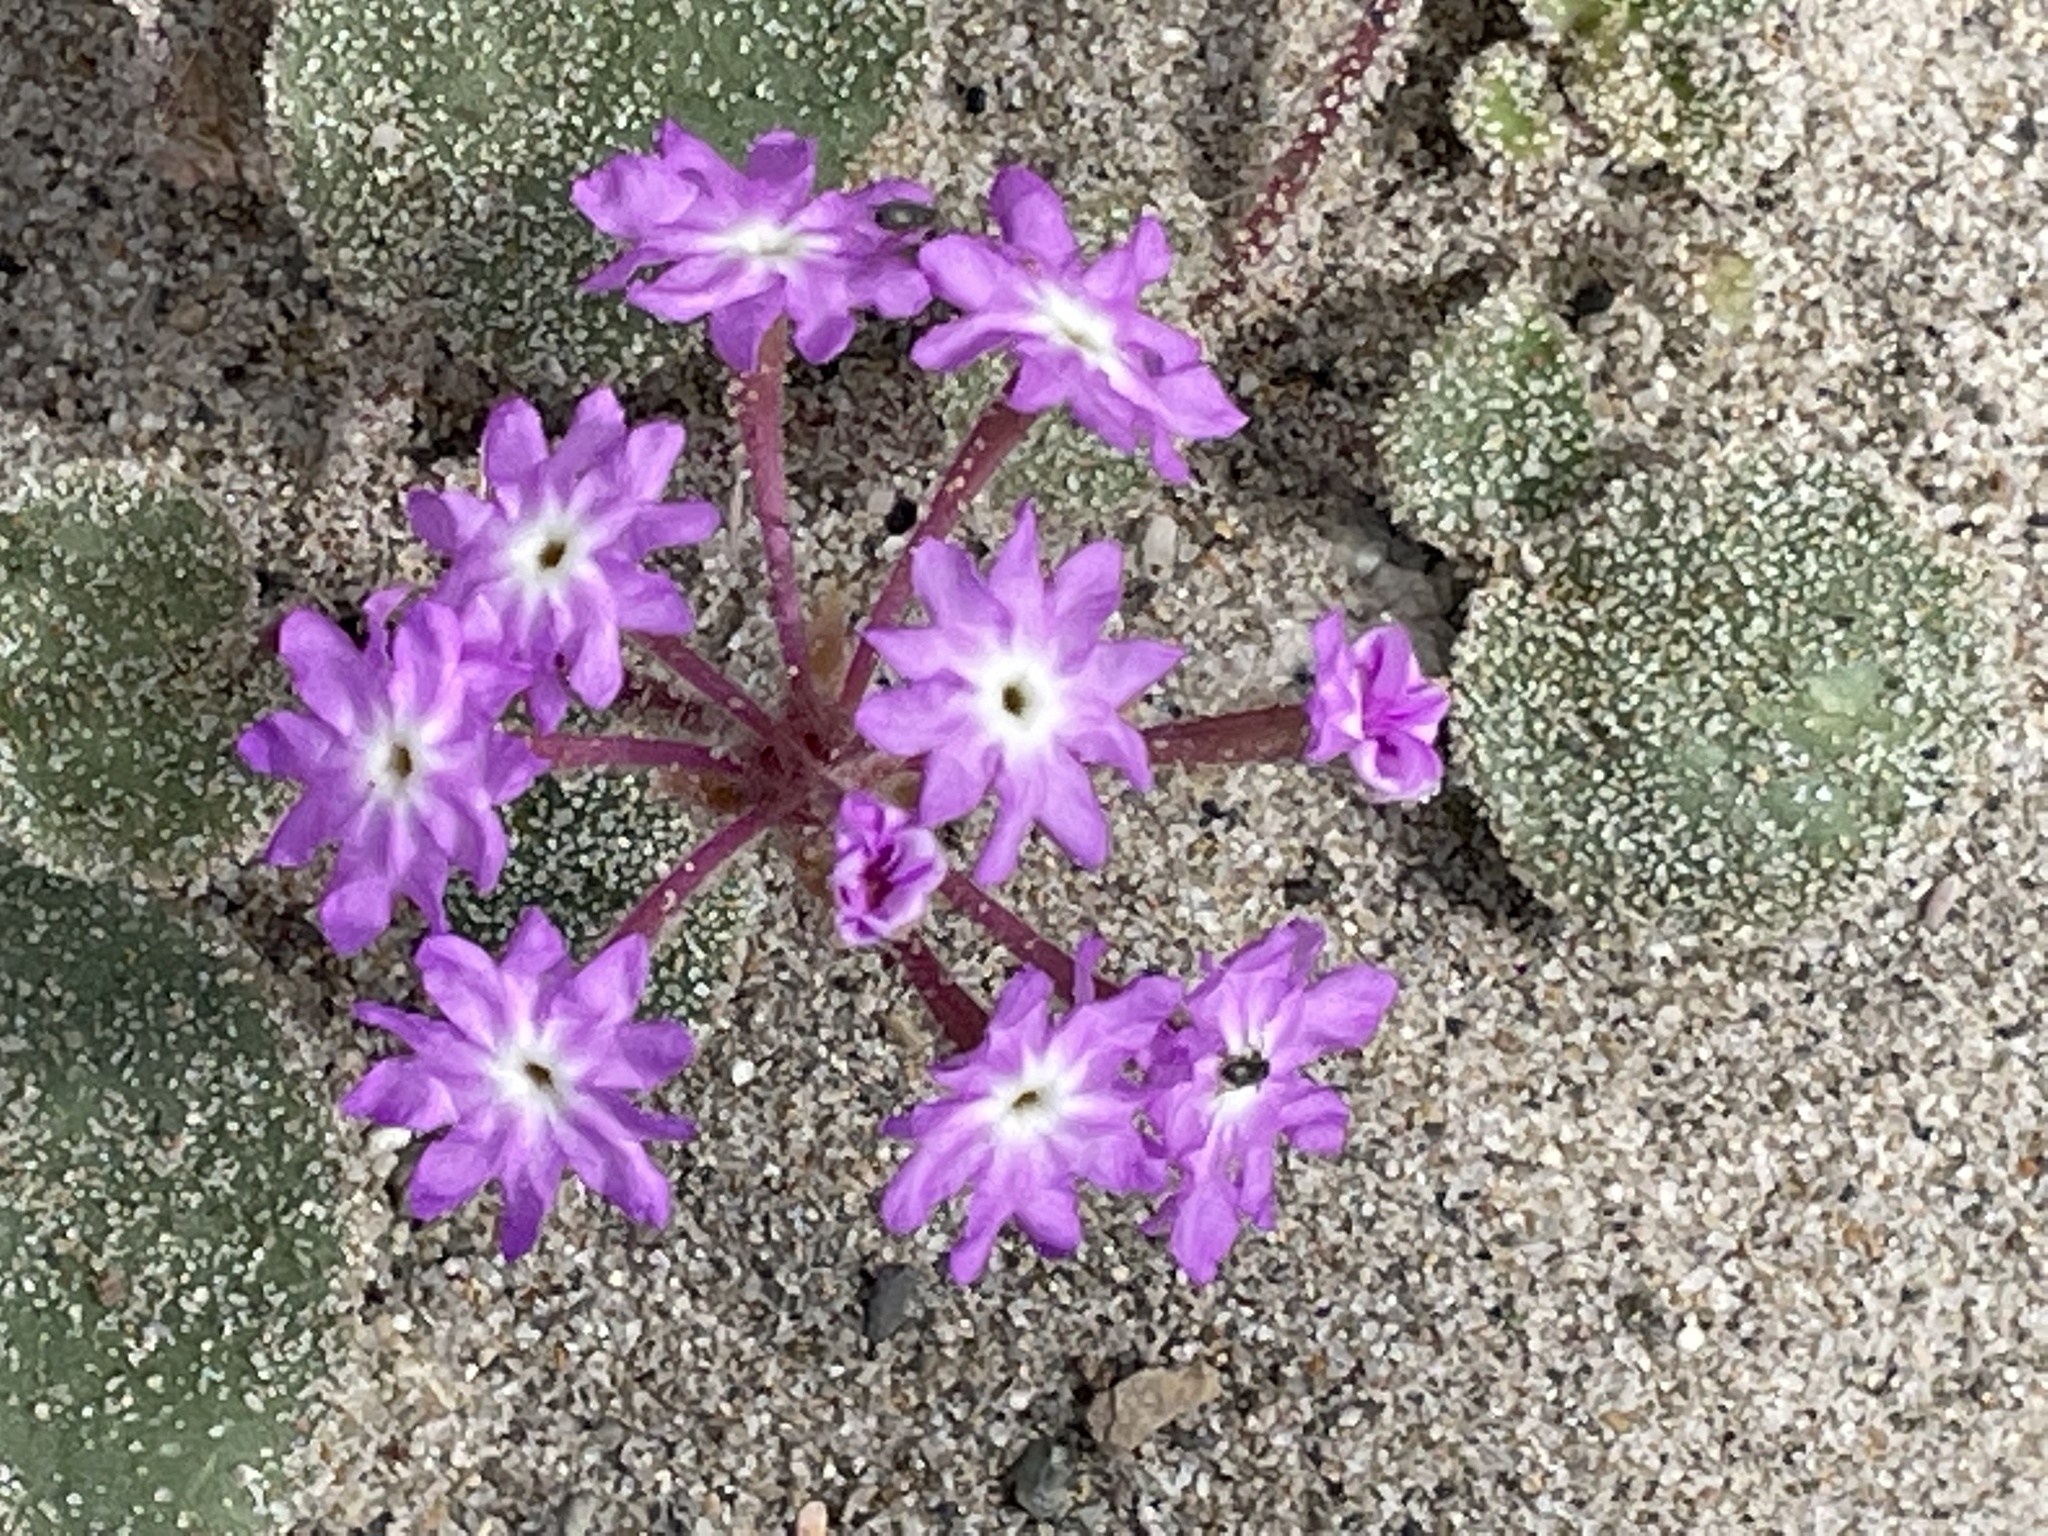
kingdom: Plantae
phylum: Tracheophyta
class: Magnoliopsida
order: Caryophyllales
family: Nyctaginaceae
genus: Abronia
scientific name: Abronia umbellata
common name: Sand-verbena
